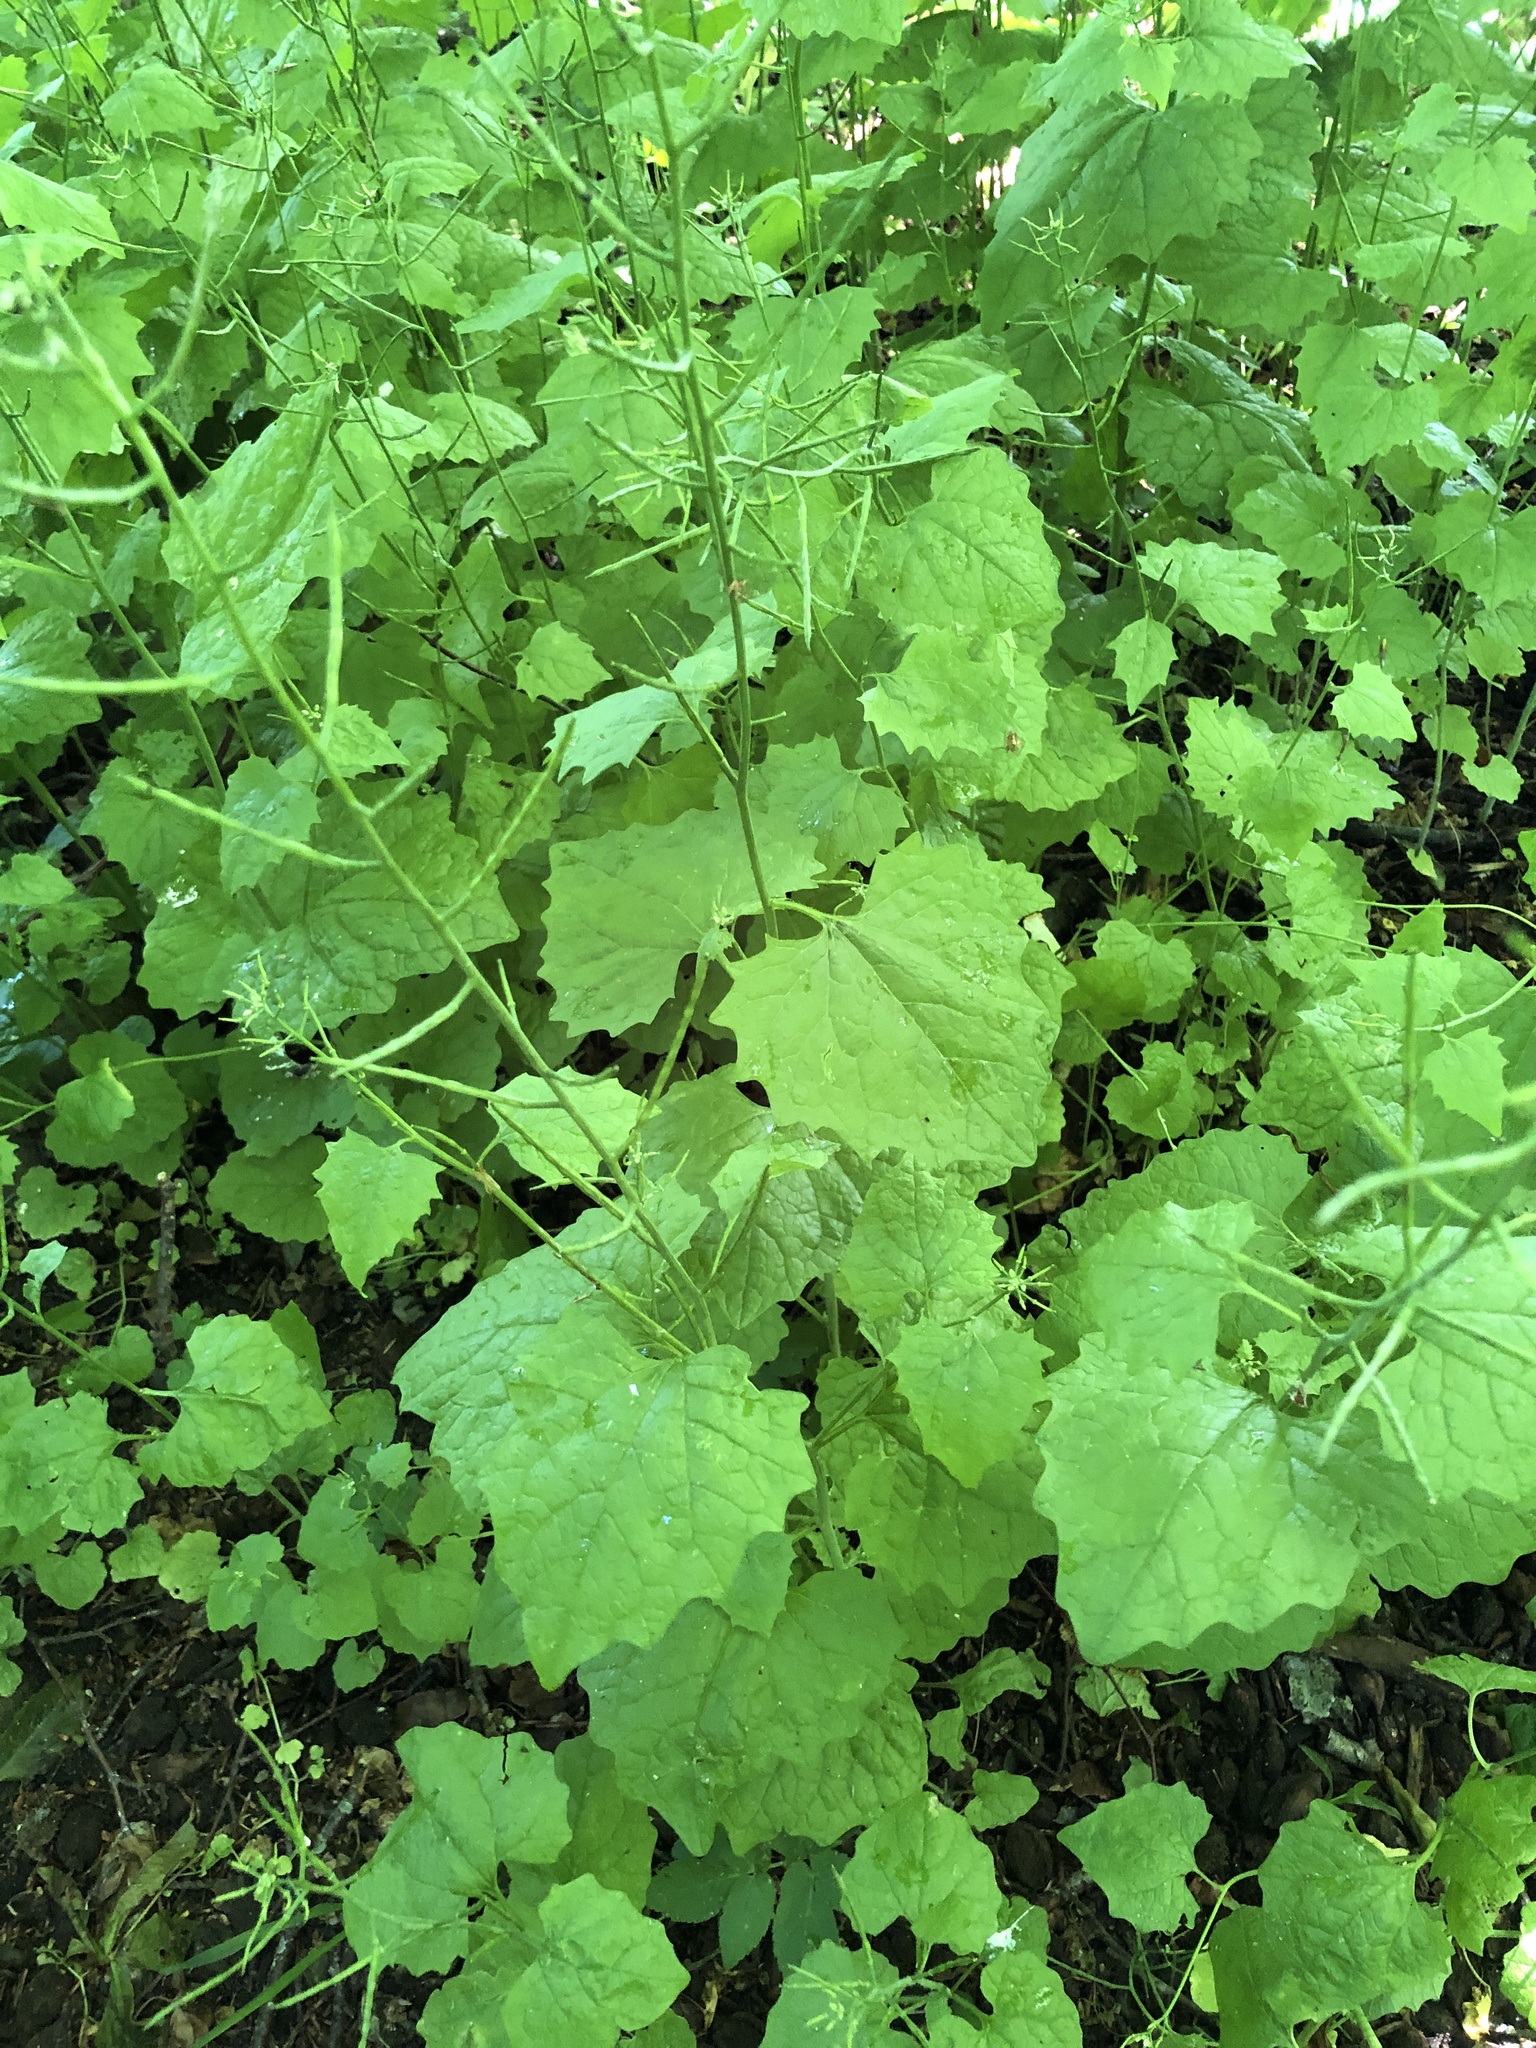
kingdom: Plantae
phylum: Tracheophyta
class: Magnoliopsida
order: Brassicales
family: Brassicaceae
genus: Alliaria
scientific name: Alliaria petiolata
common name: Garlic mustard
